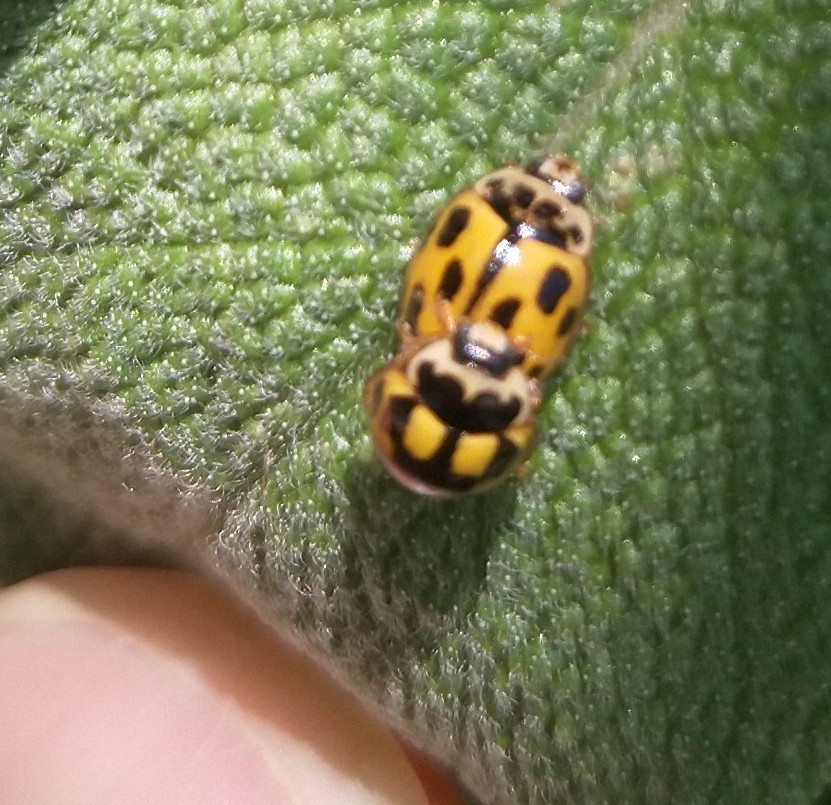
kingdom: Animalia
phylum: Arthropoda
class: Insecta
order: Coleoptera
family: Coccinellidae
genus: Propylaea
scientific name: Propylaea quatuordecimpunctata
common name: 14-spotted ladybird beetle
